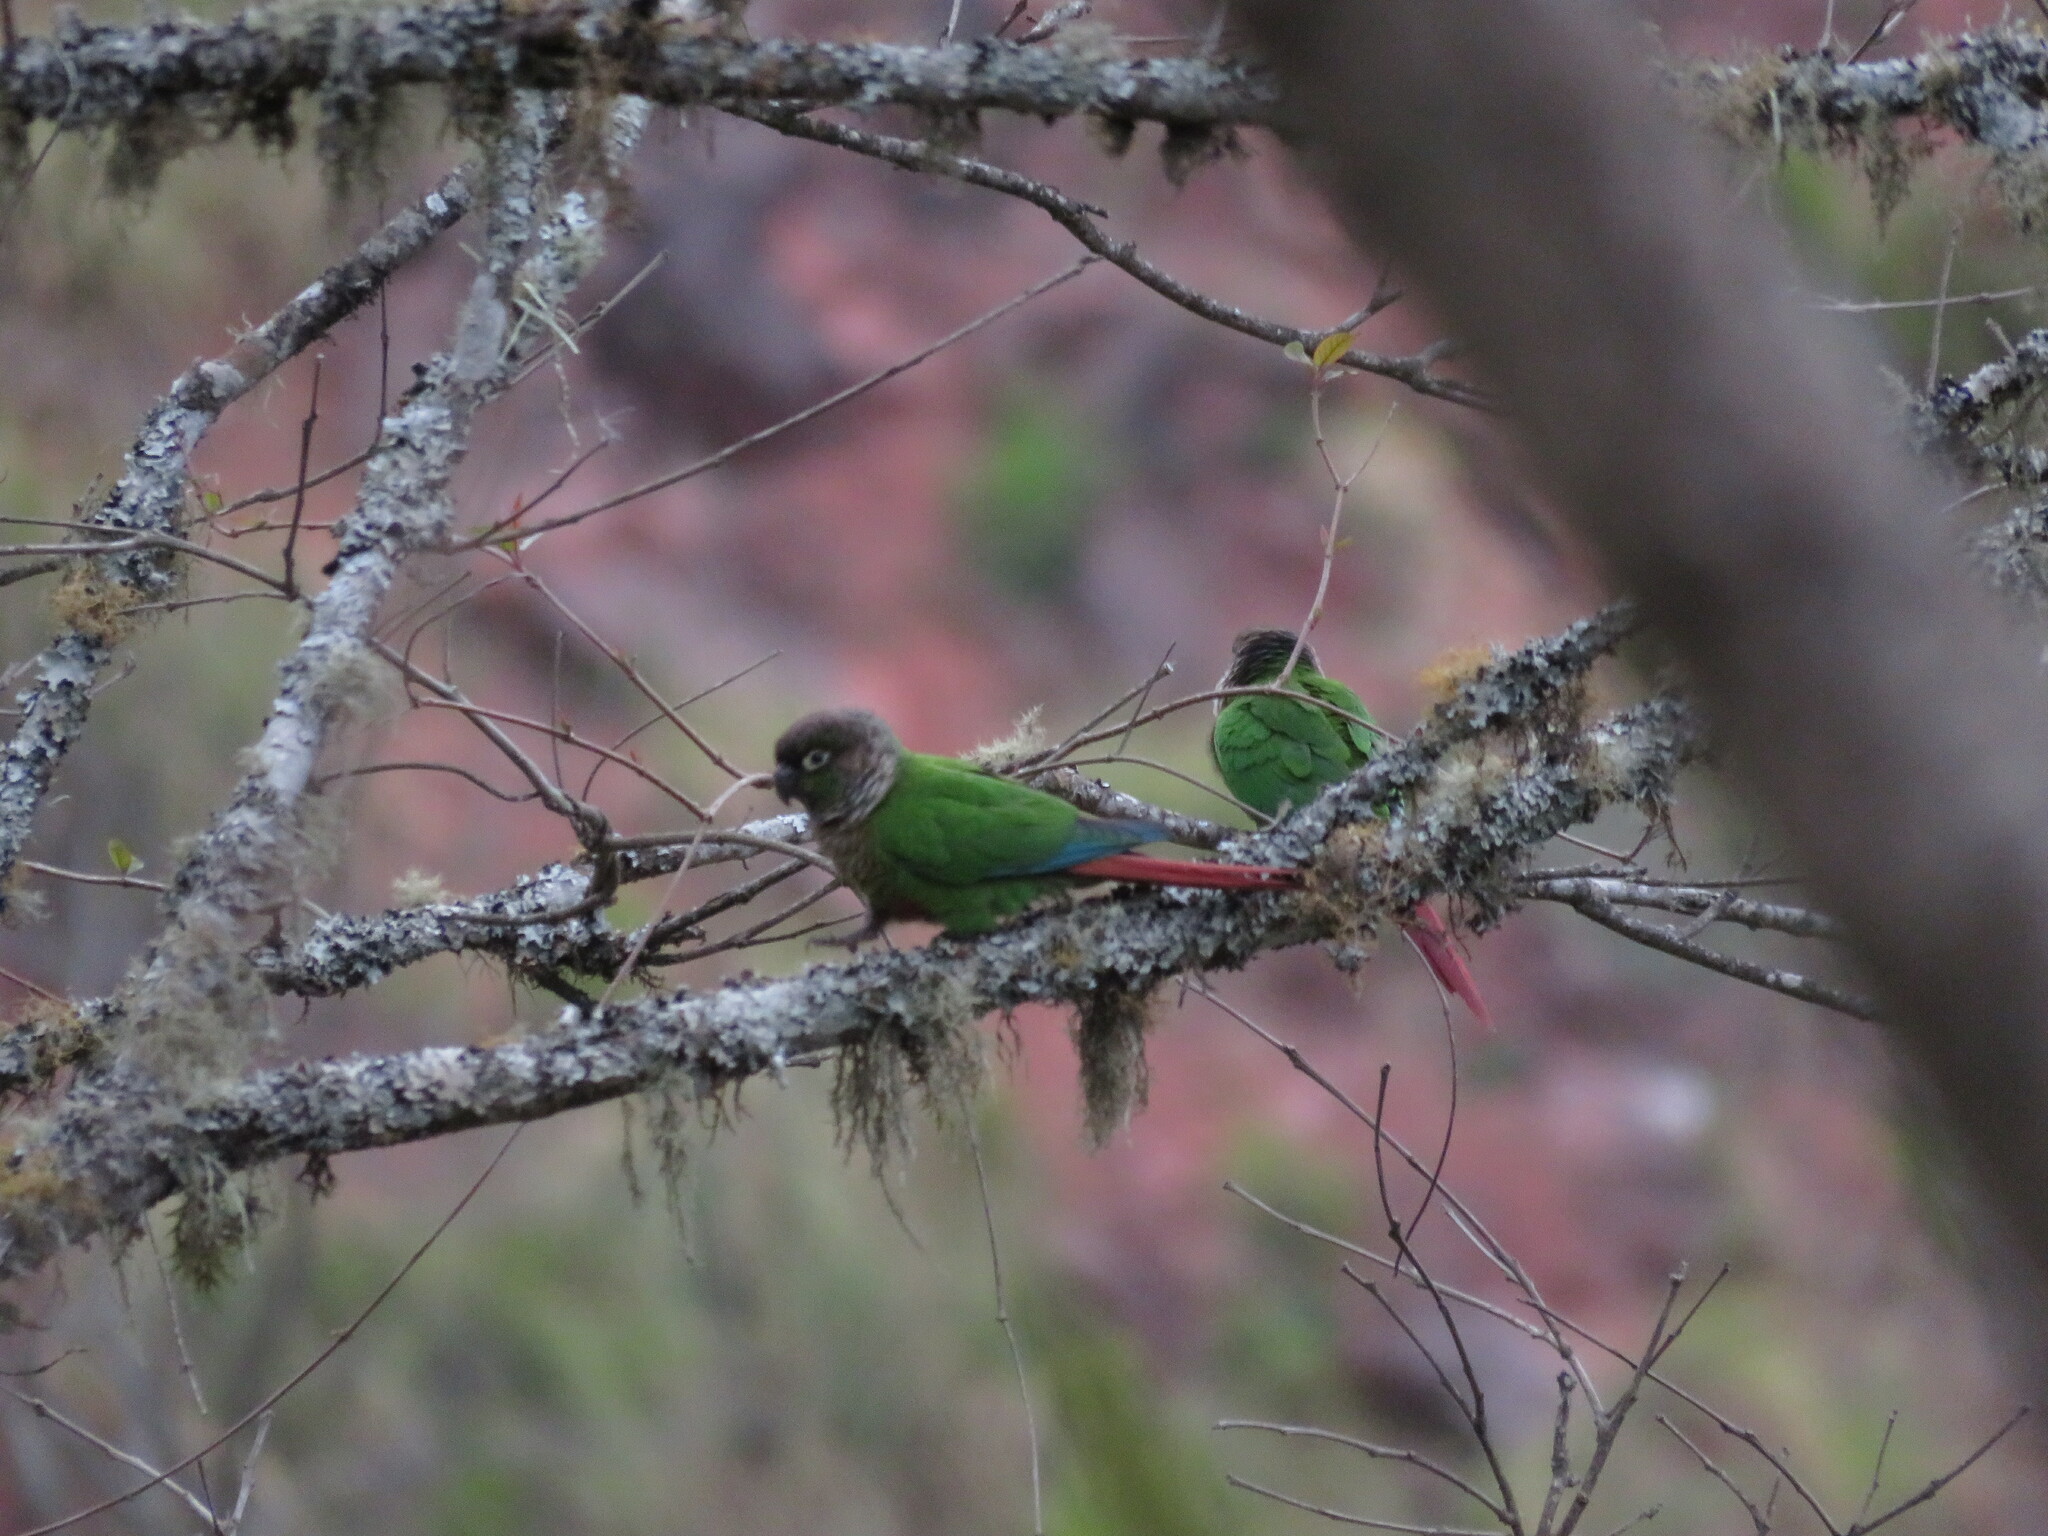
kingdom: Animalia
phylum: Chordata
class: Aves
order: Psittaciformes
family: Psittacidae
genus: Pyrrhura
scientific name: Pyrrhura molinae
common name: Green-cheeked parakeet
